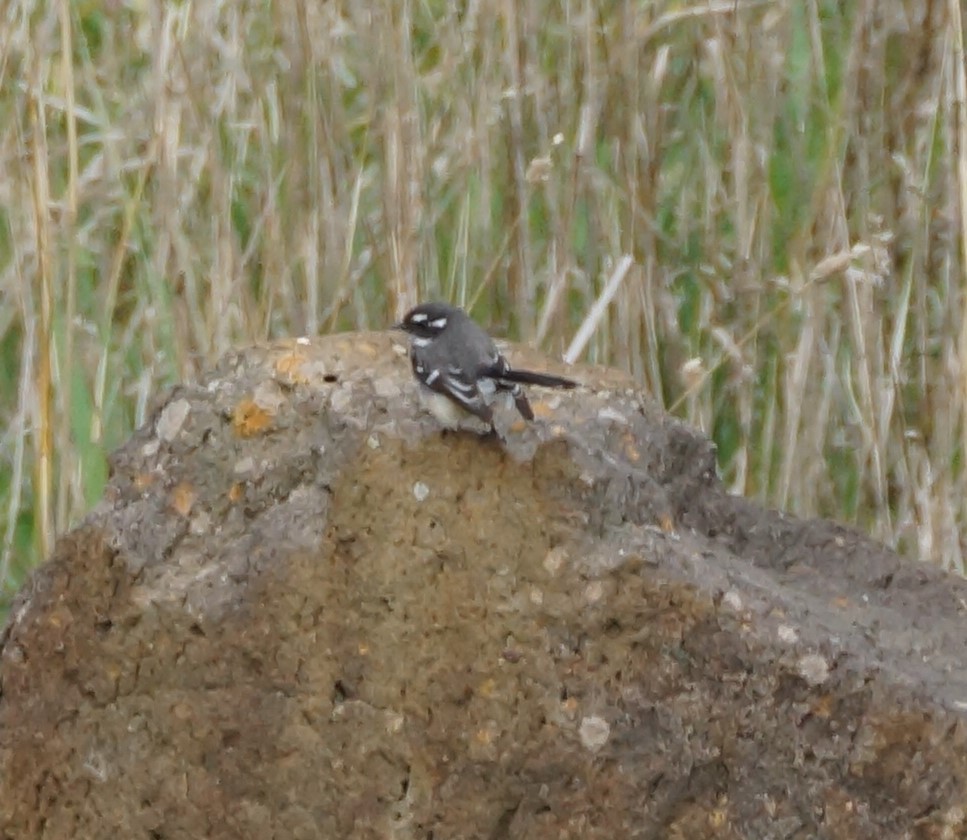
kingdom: Animalia
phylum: Chordata
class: Aves
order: Passeriformes
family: Rhipiduridae
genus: Rhipidura
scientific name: Rhipidura albiscapa
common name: Grey fantail
